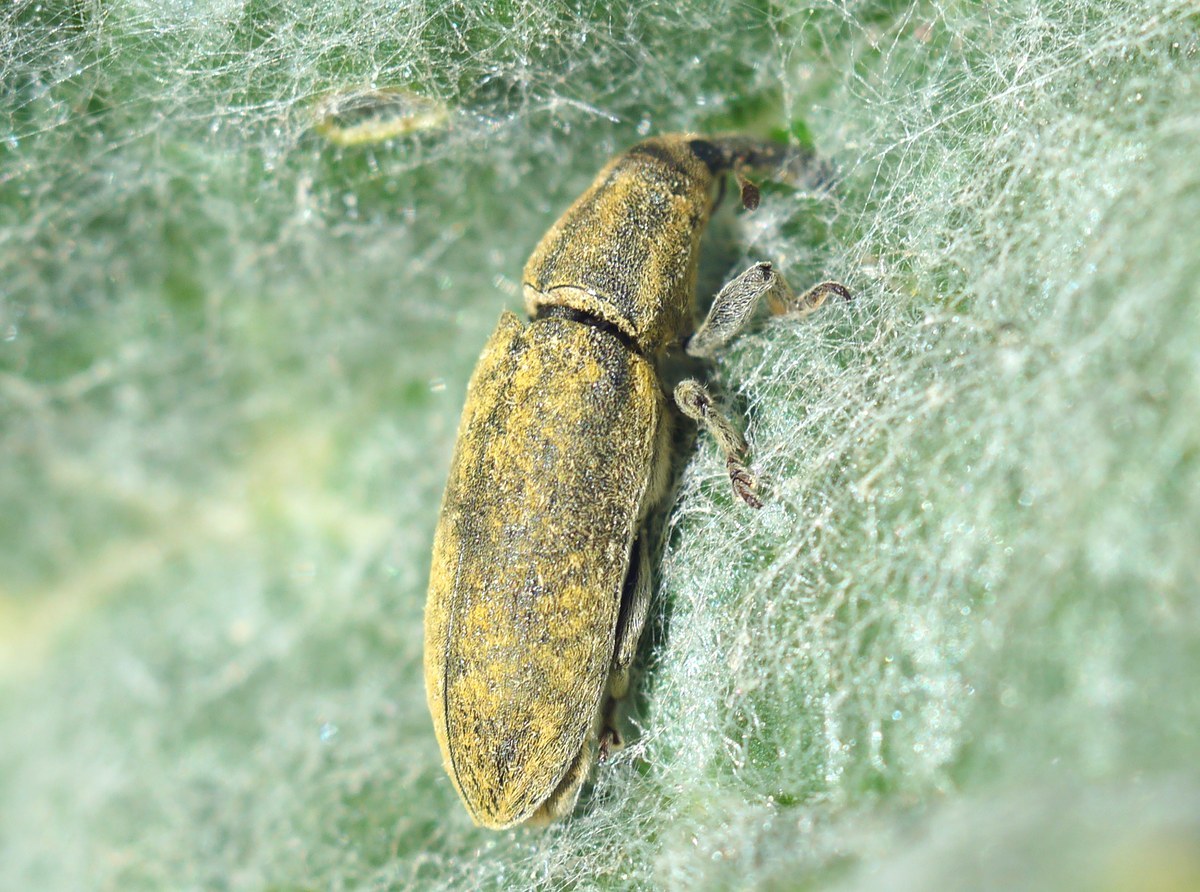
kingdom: Animalia
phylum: Arthropoda
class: Insecta
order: Coleoptera
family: Curculionidae
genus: Lixus
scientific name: Lixus cardui
